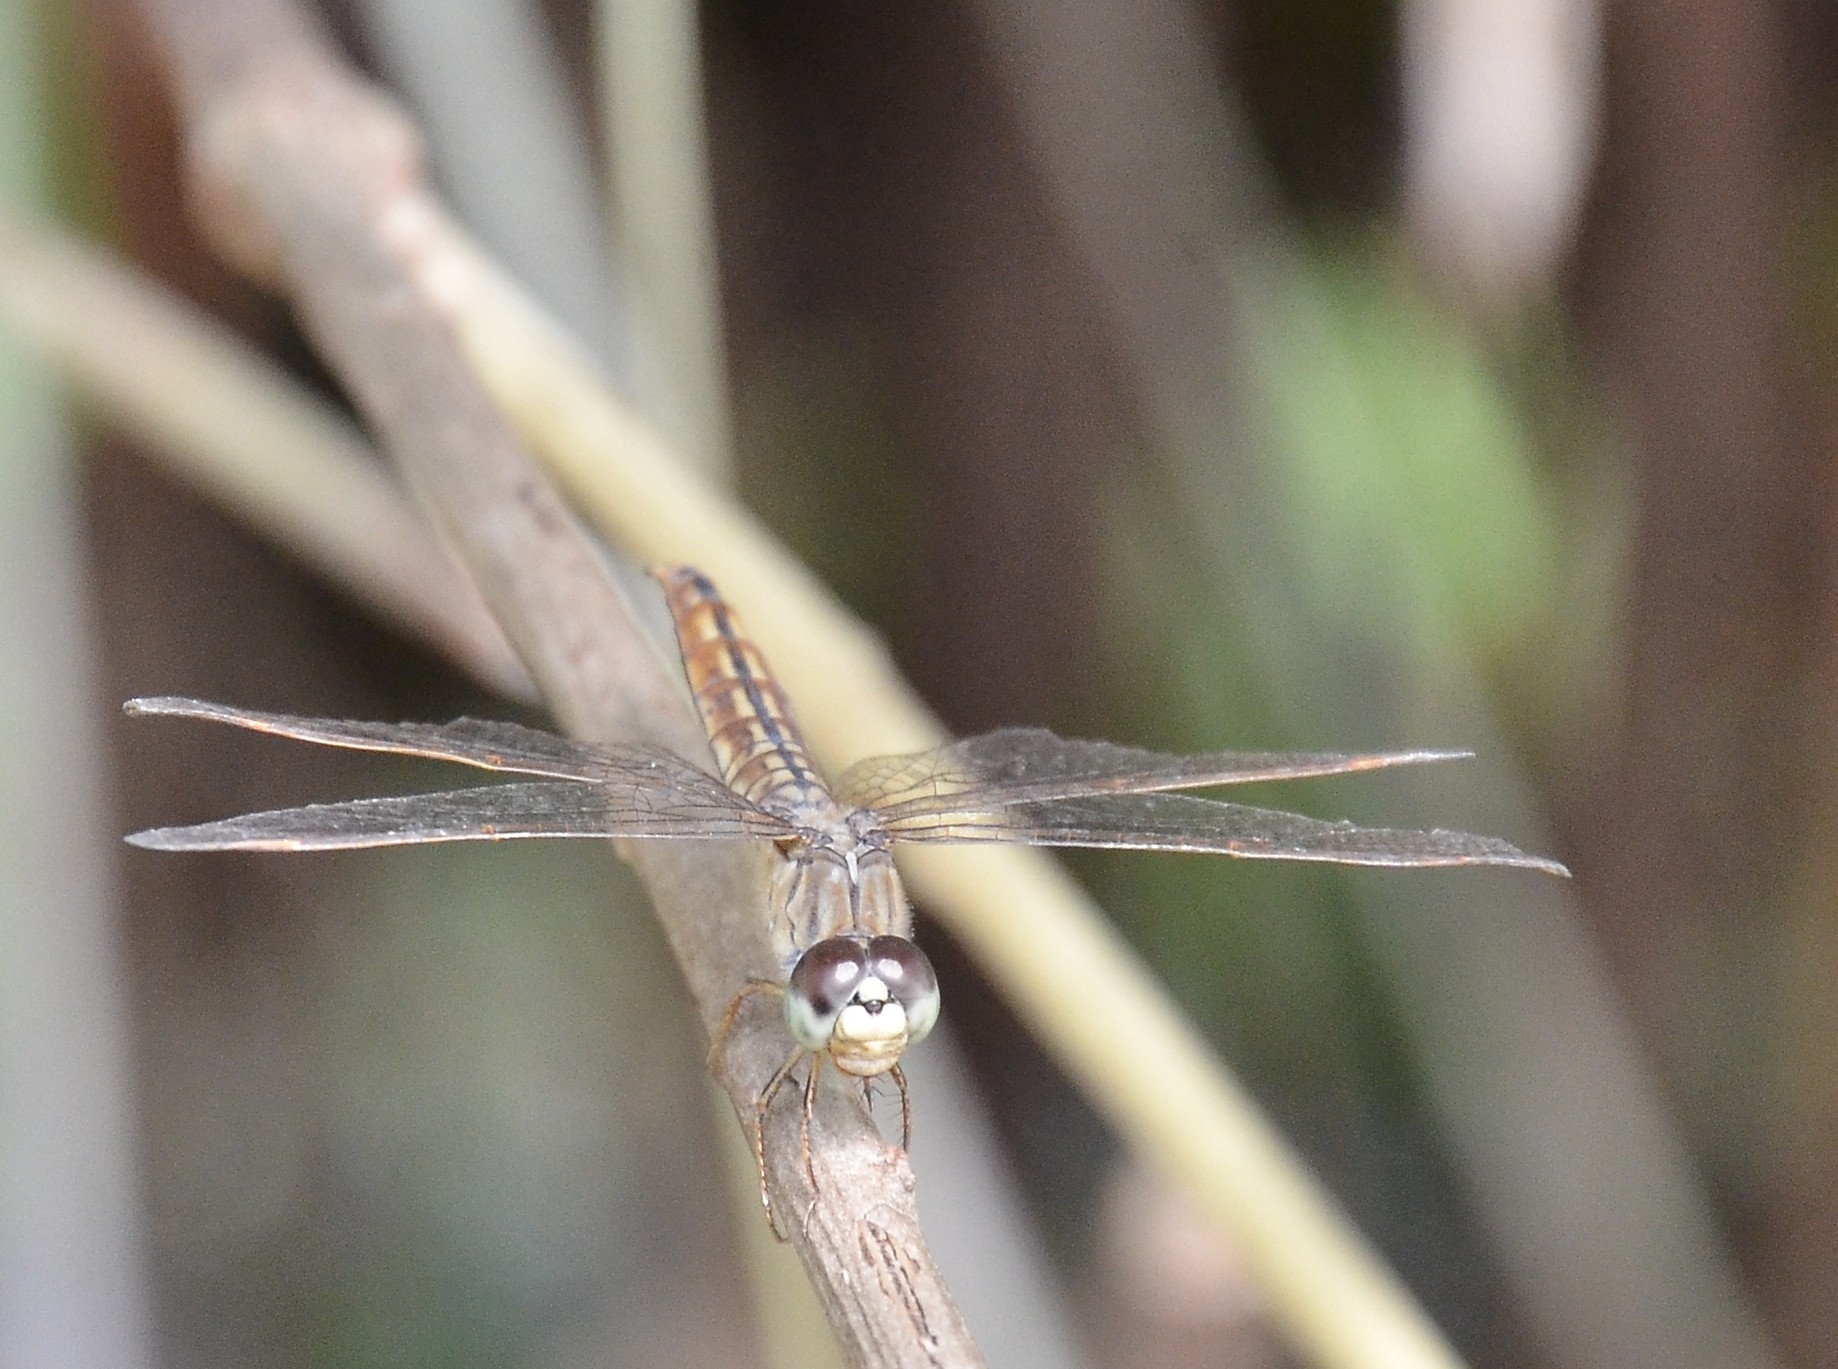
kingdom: Animalia
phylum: Arthropoda
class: Insecta
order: Odonata
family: Libellulidae
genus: Brachythemis
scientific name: Brachythemis contaminata
